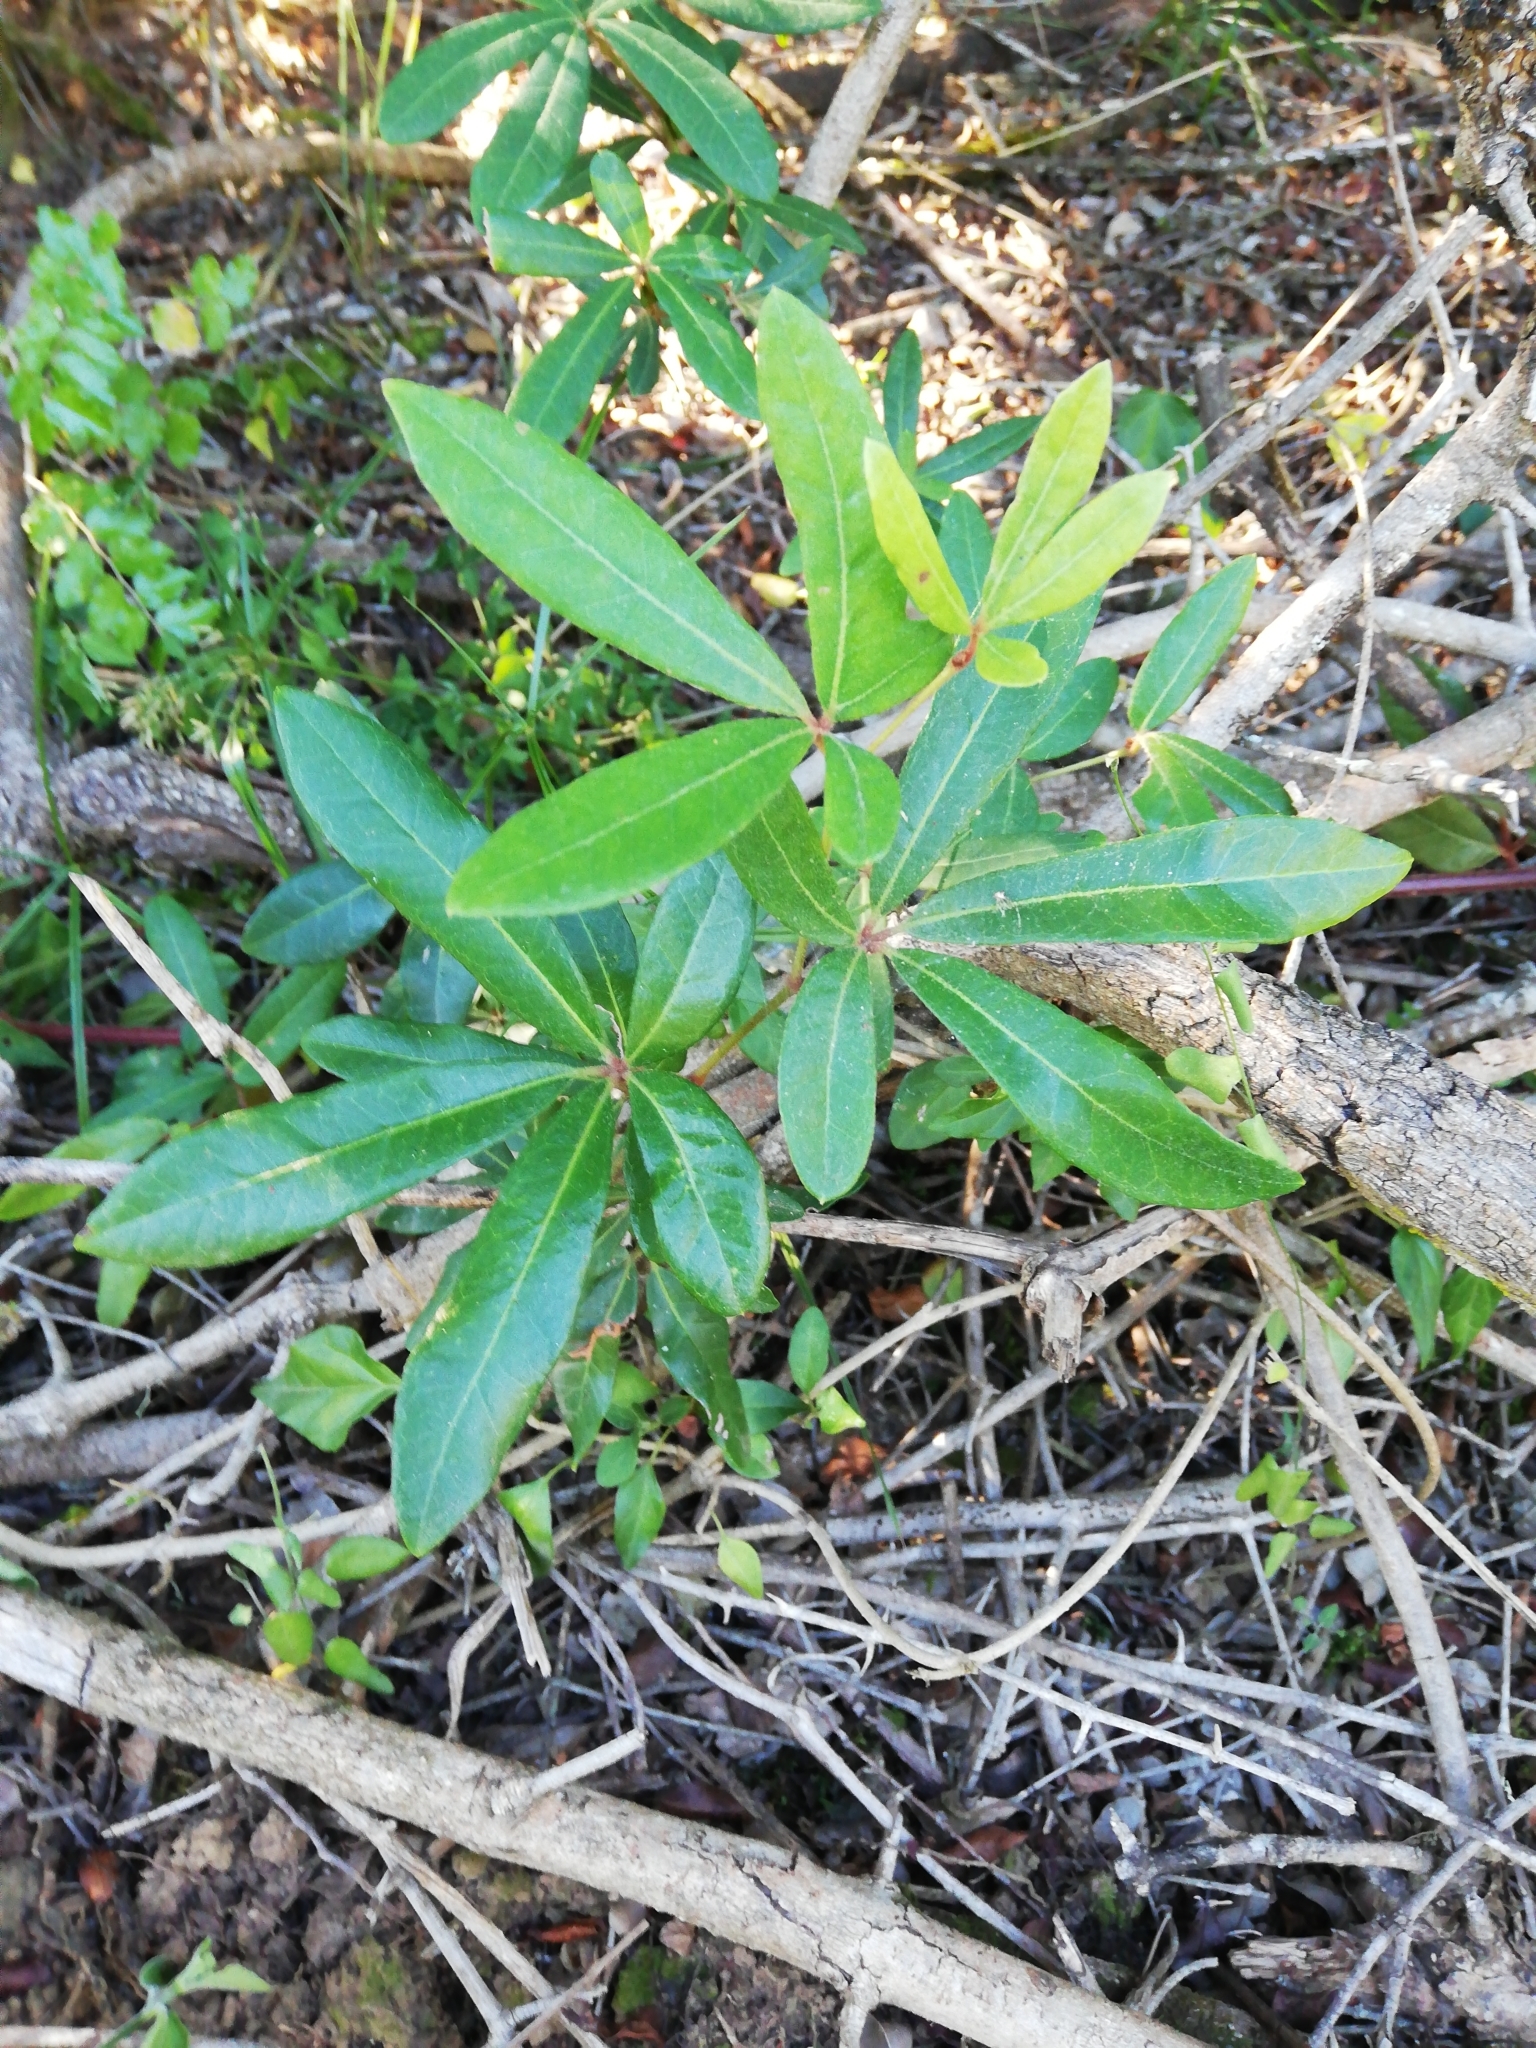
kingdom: Plantae
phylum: Tracheophyta
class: Magnoliopsida
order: Vitales
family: Vitaceae
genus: Rhoicissus
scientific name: Rhoicissus digitata
